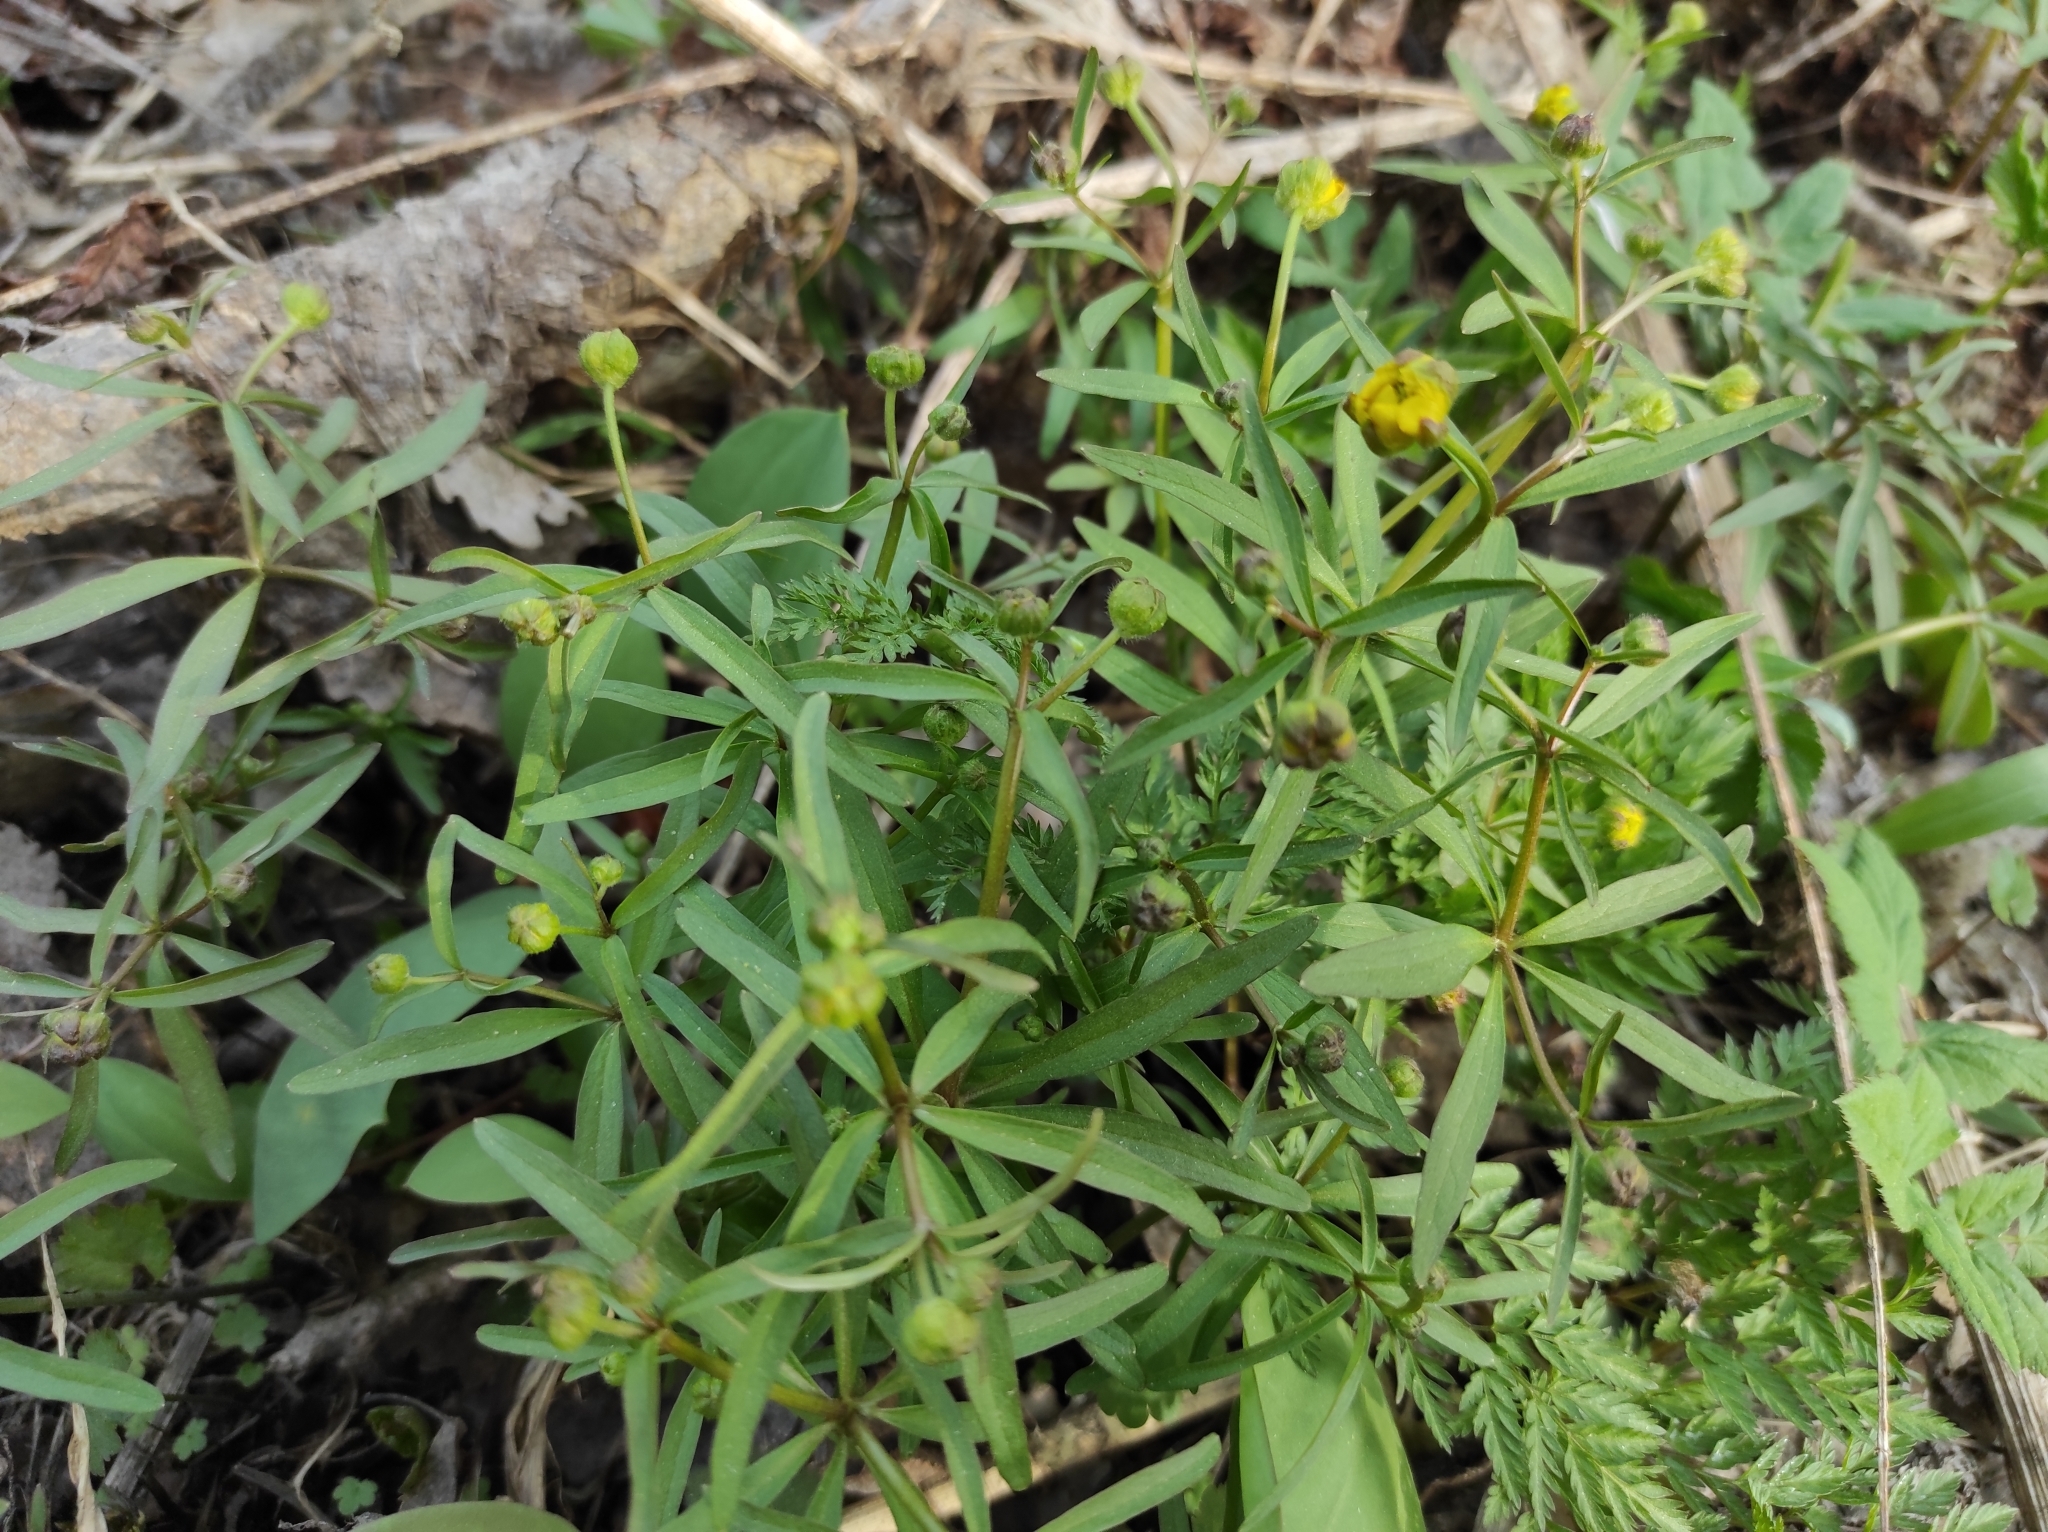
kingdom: Plantae
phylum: Tracheophyta
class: Magnoliopsida
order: Ranunculales
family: Ranunculaceae
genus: Ranunculus
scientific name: Ranunculus monophyllus
